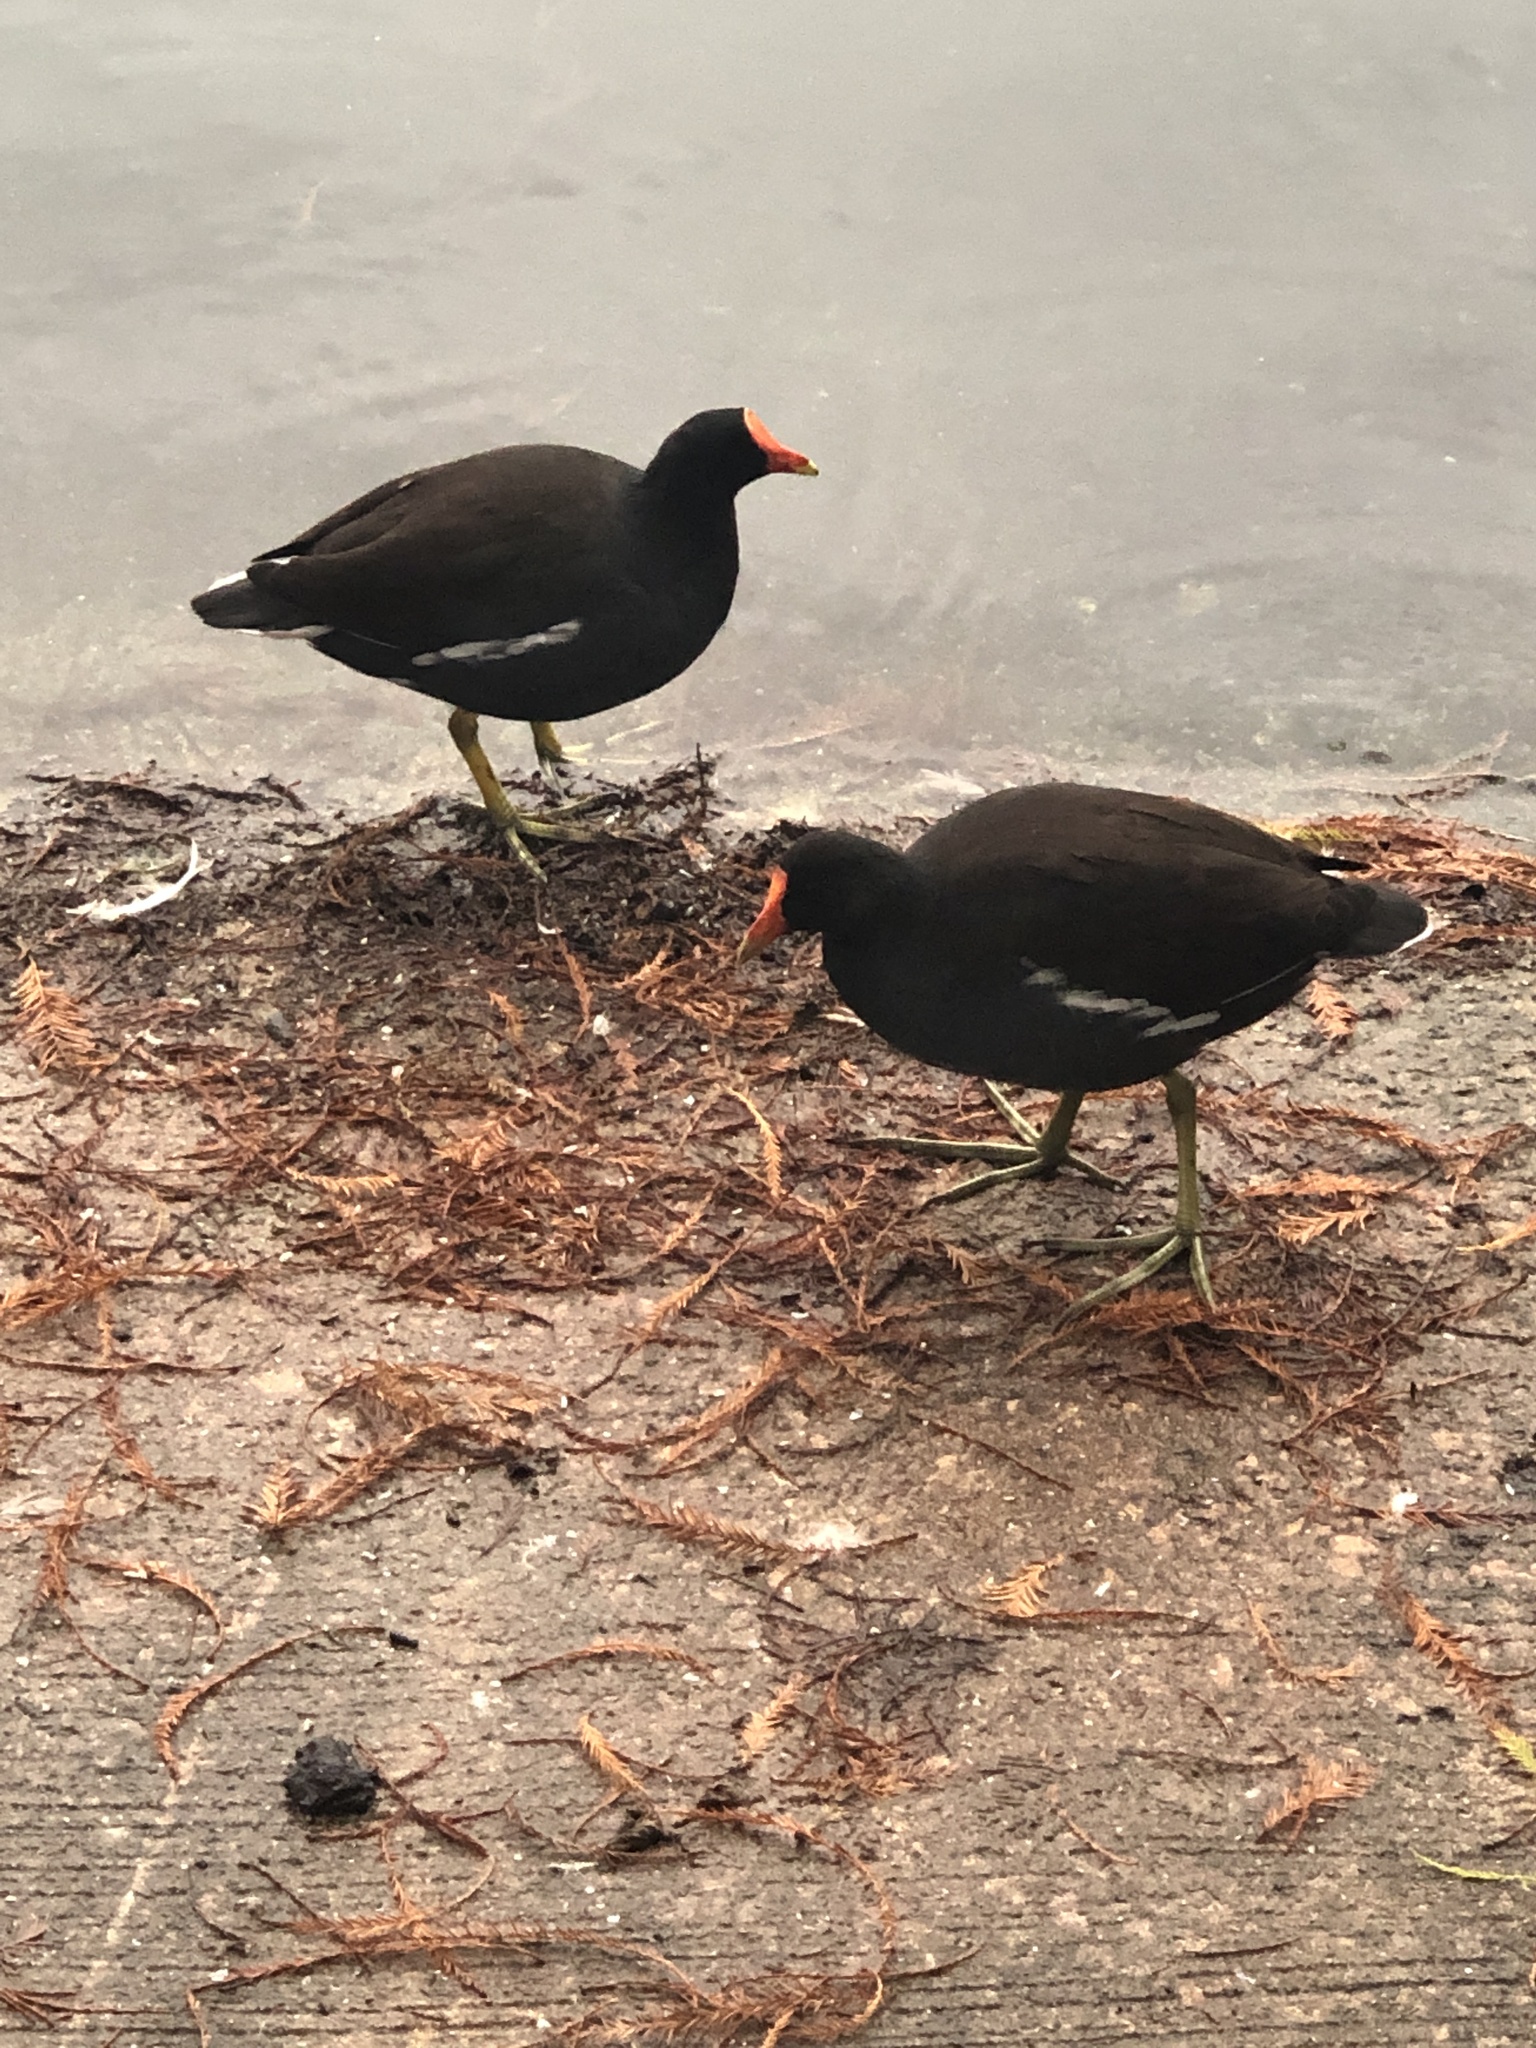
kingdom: Animalia
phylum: Chordata
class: Aves
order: Gruiformes
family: Rallidae
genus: Gallinula
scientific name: Gallinula chloropus
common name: Common moorhen
